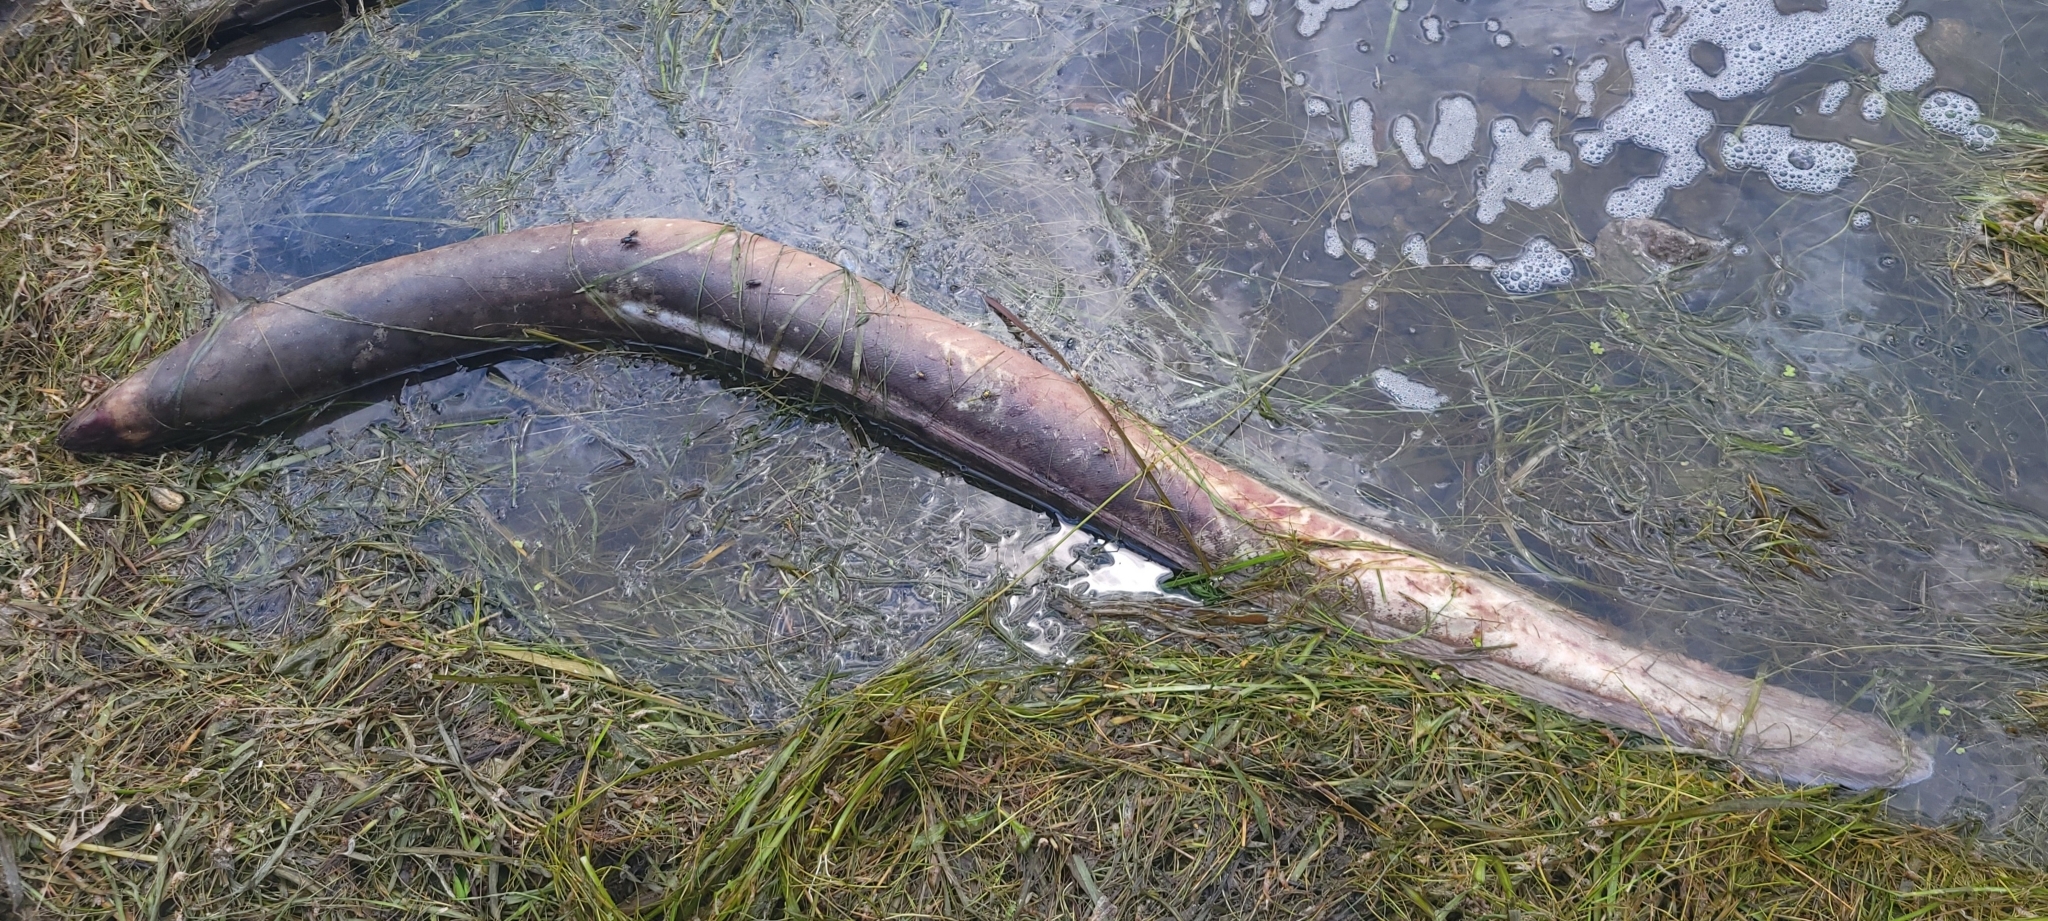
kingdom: Animalia
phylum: Chordata
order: Anguilliformes
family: Anguillidae
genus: Anguilla
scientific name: Anguilla rostrata
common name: American eel
